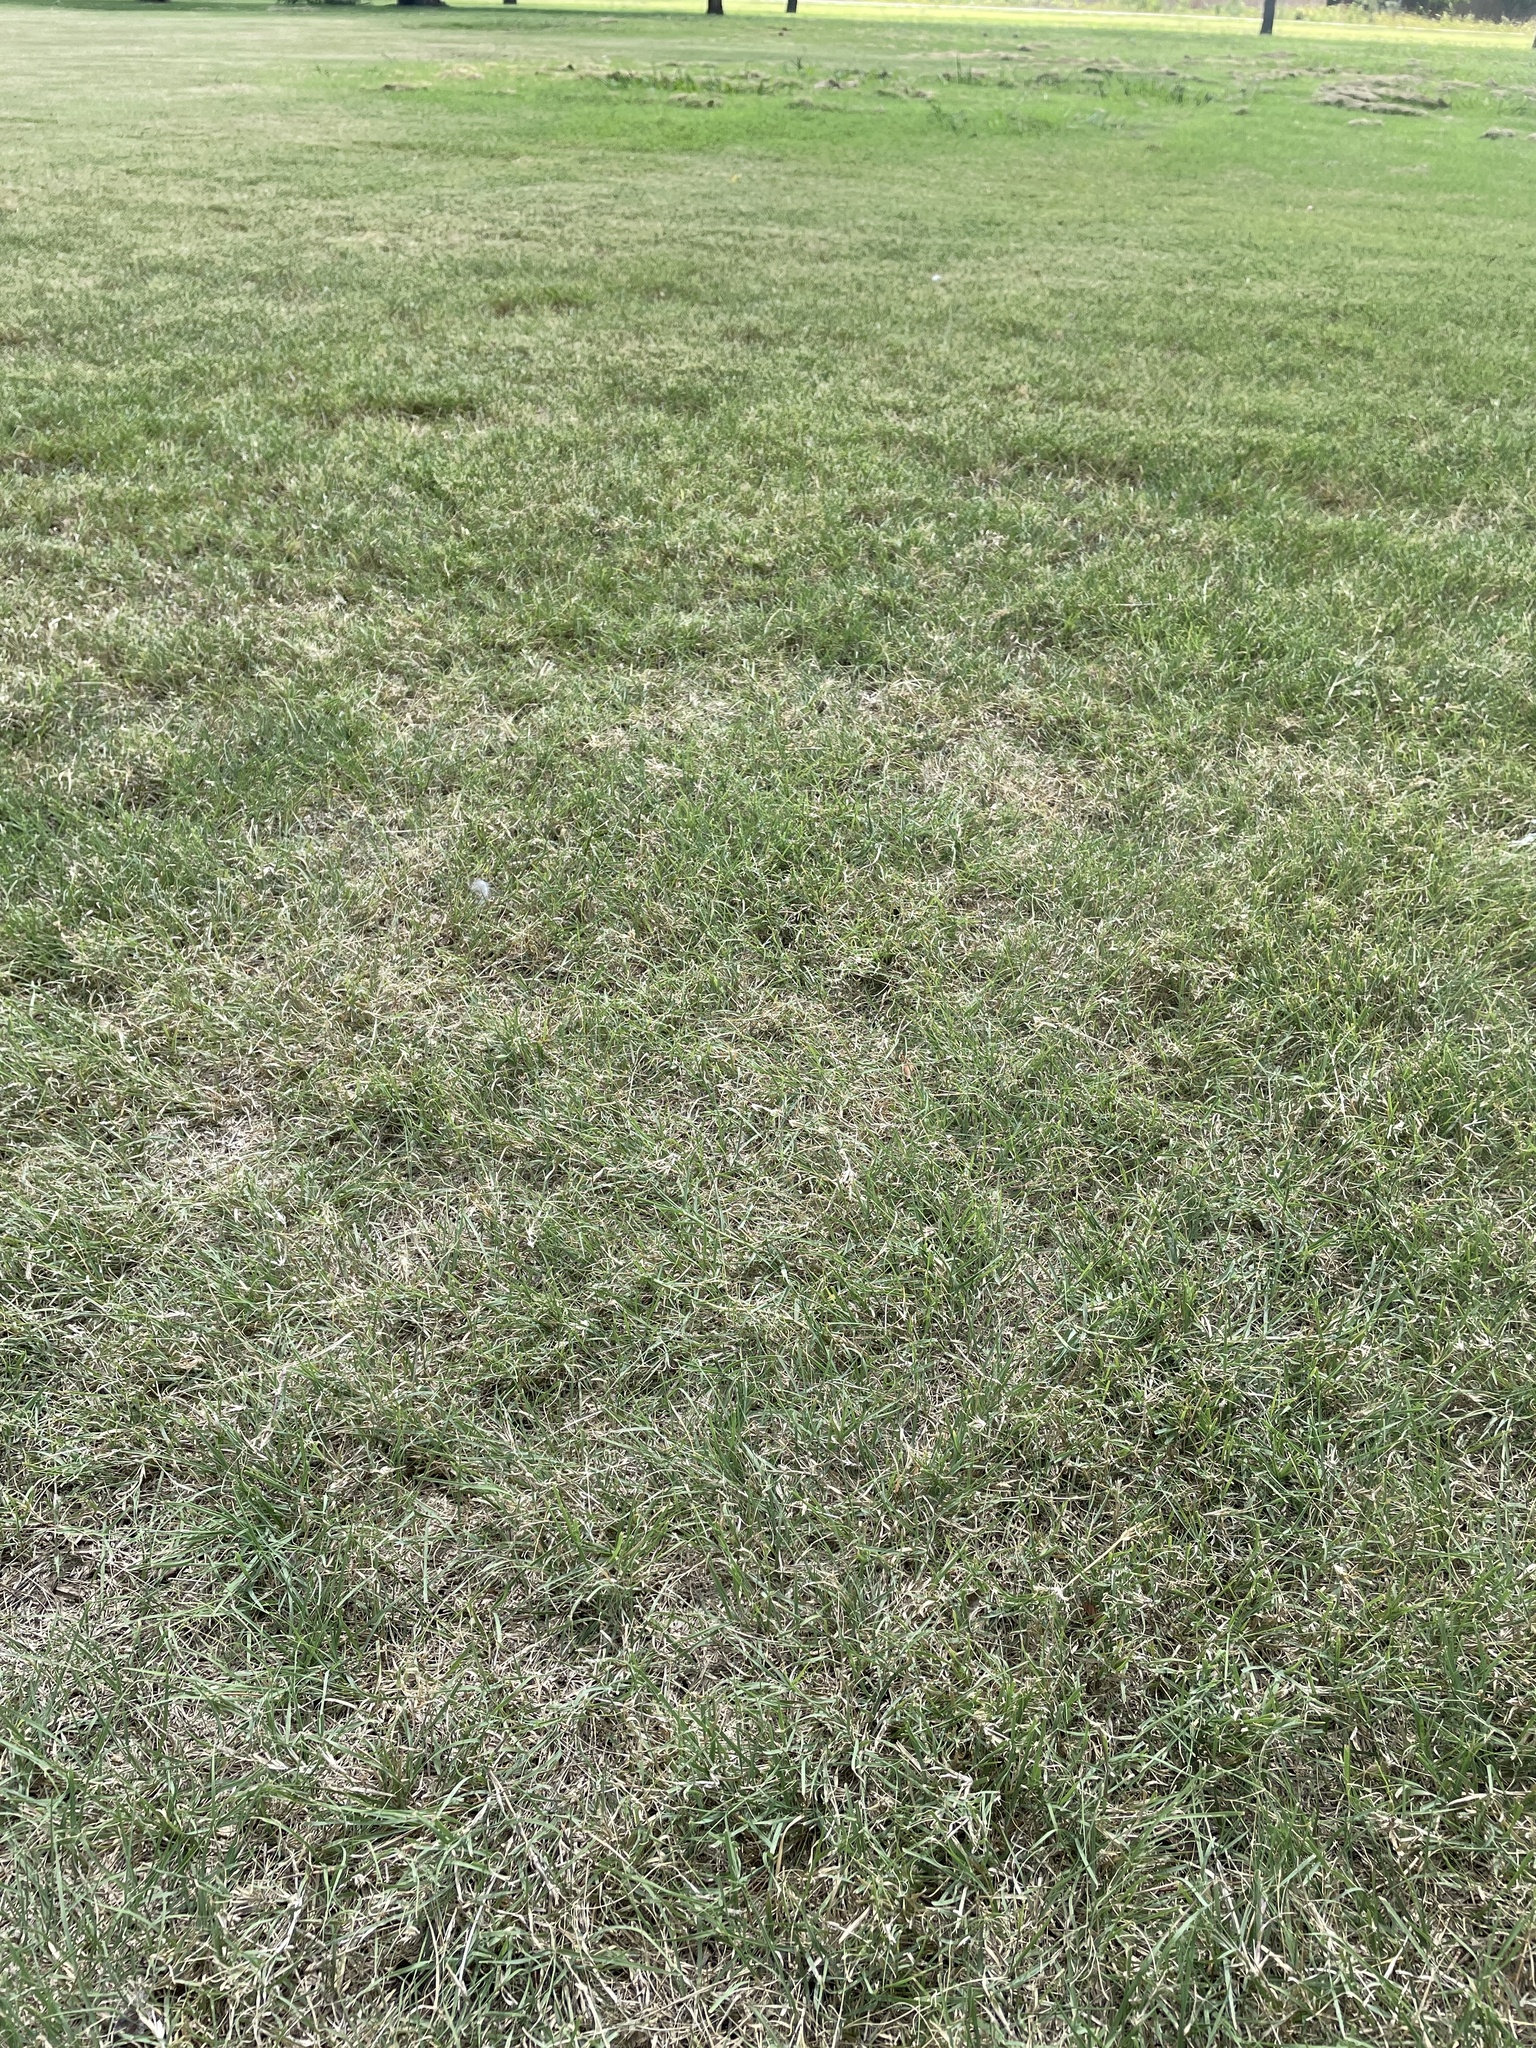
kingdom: Plantae
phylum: Tracheophyta
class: Liliopsida
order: Poales
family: Poaceae
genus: Bouteloua
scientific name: Bouteloua dactyloides
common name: Buffalo grass
